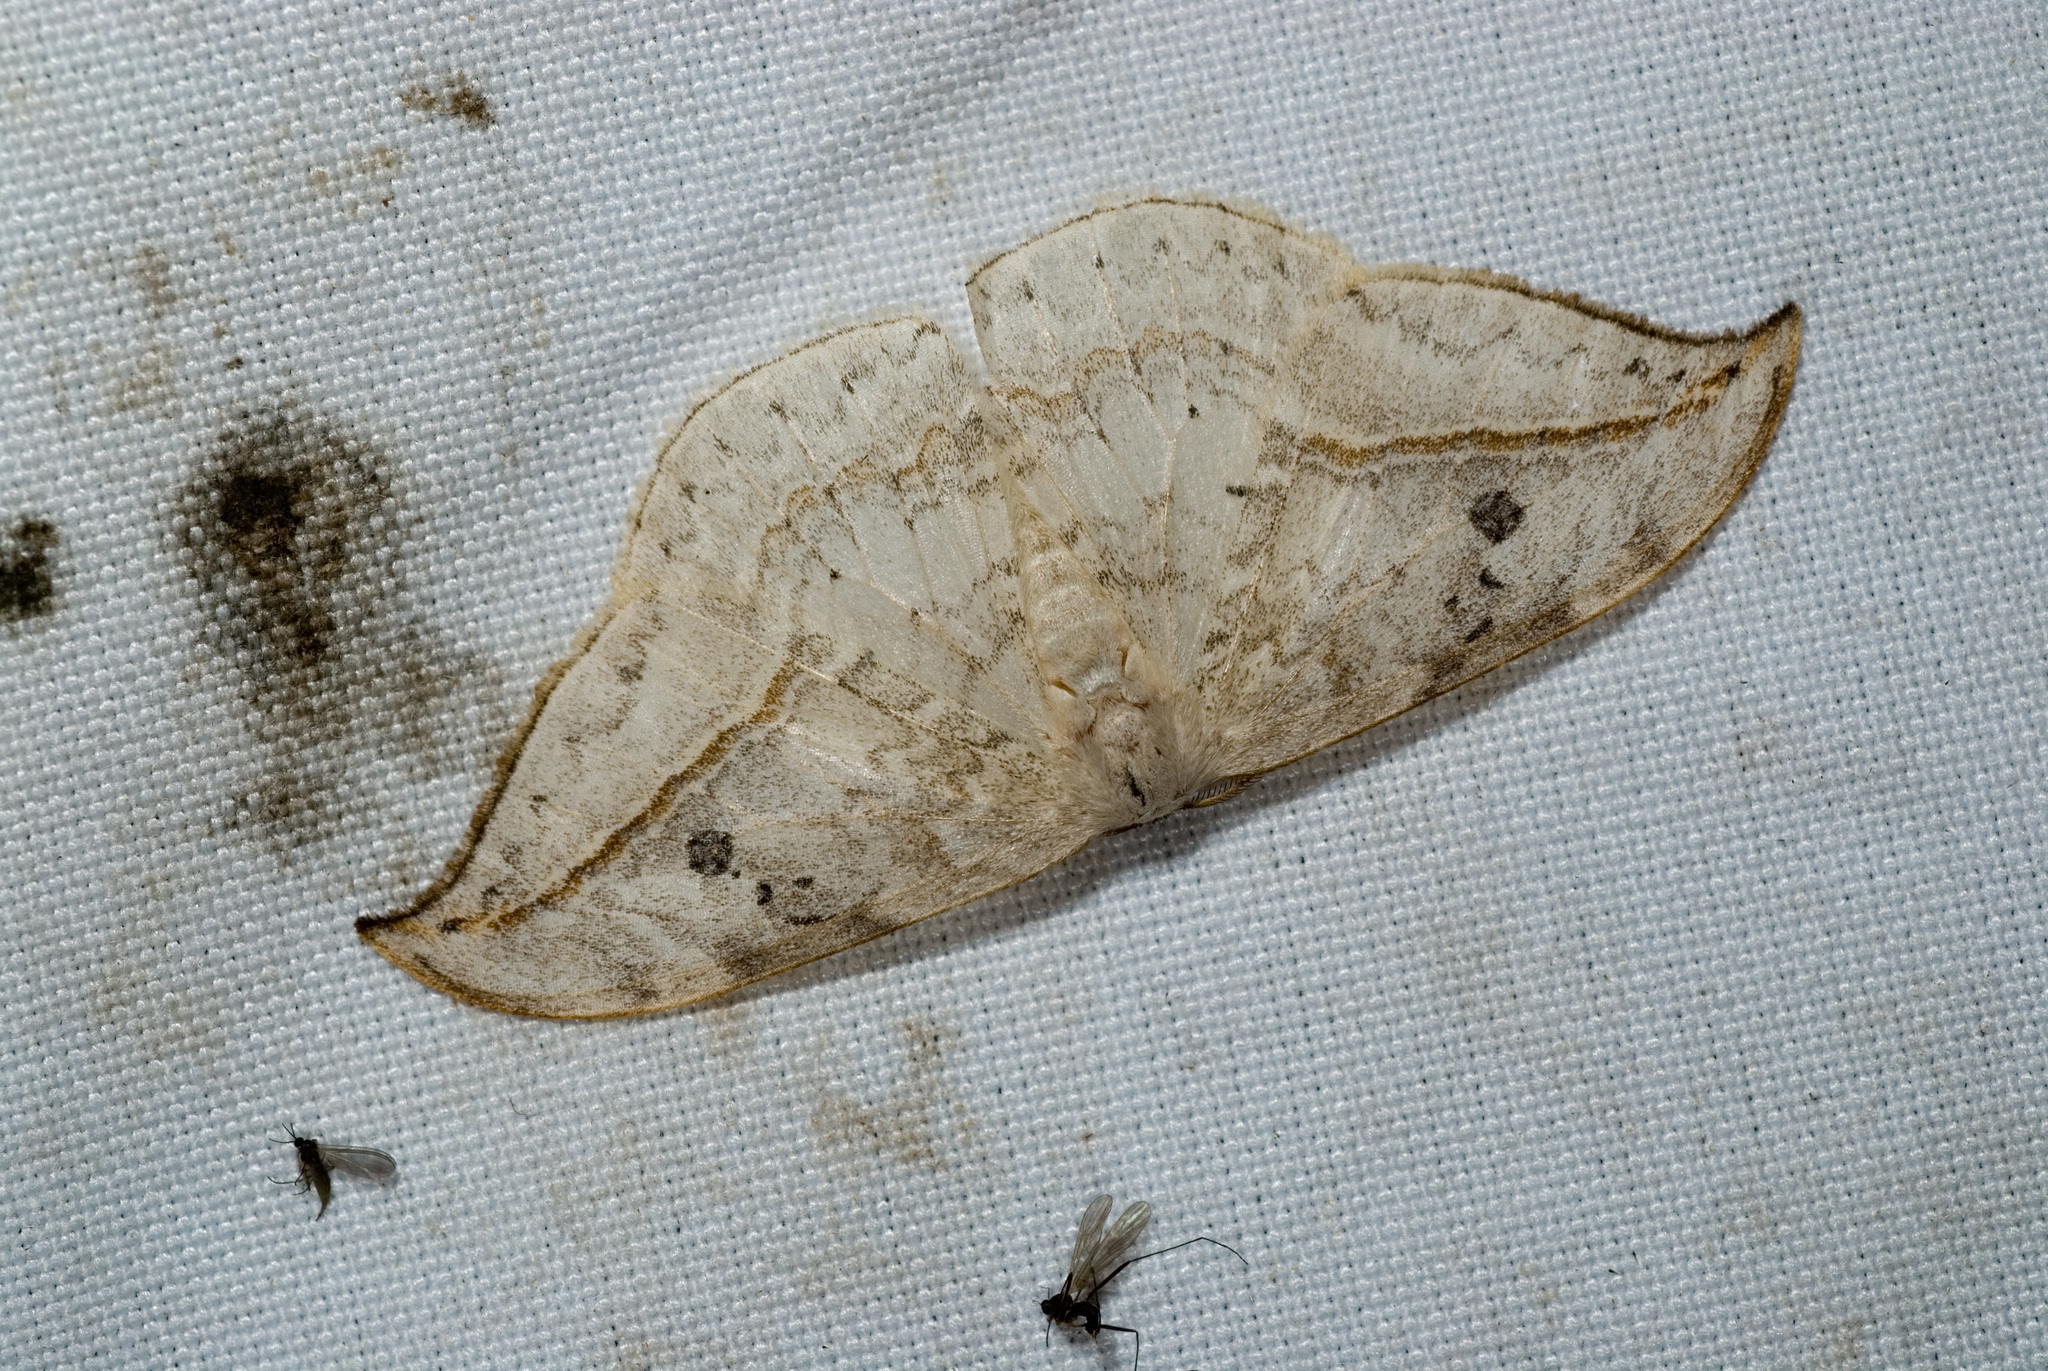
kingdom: Animalia
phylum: Arthropoda
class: Insecta
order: Lepidoptera
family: Drepanidae
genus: Drepana
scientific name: Drepana pallida
